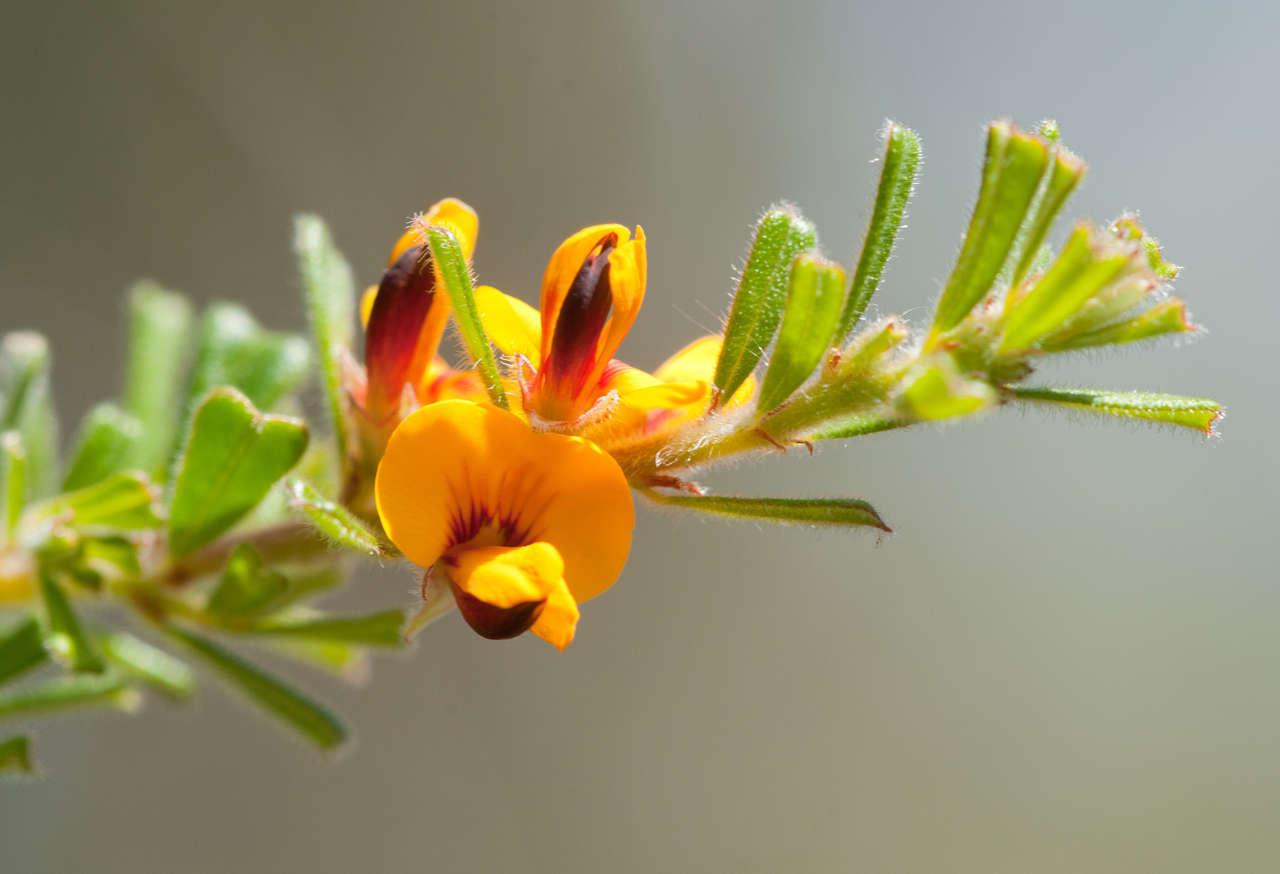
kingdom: Plantae
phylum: Tracheophyta
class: Magnoliopsida
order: Fabales
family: Fabaceae
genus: Pultenaea
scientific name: Pultenaea scabra
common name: Rough bush-pea
